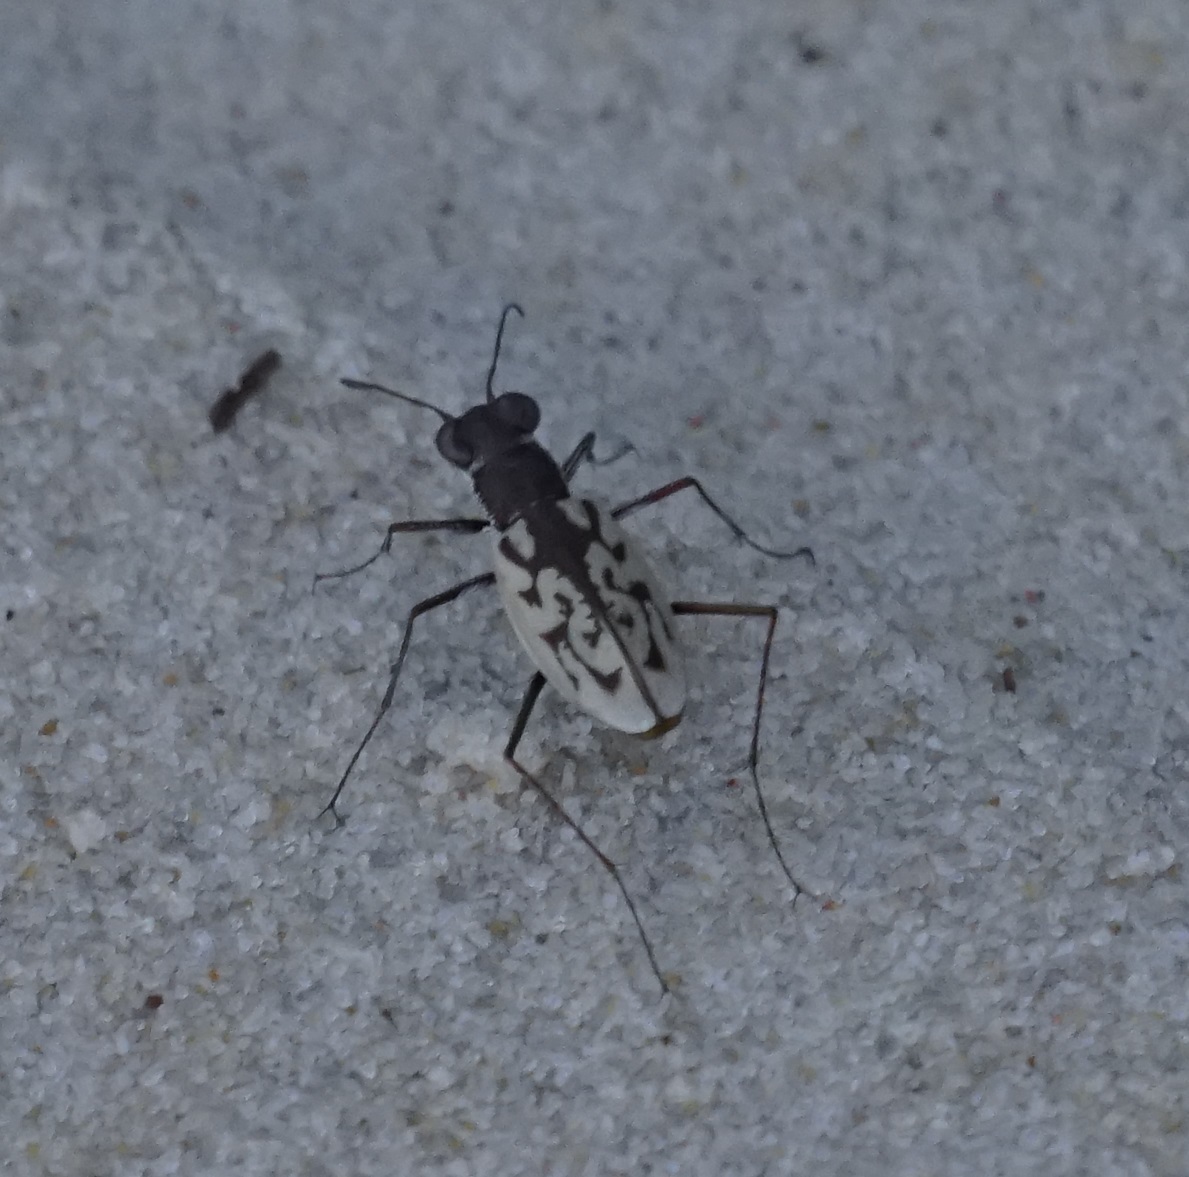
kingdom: Animalia
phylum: Arthropoda
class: Insecta
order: Coleoptera
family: Carabidae
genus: Hypaetha
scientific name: Hypaetha upsilon
